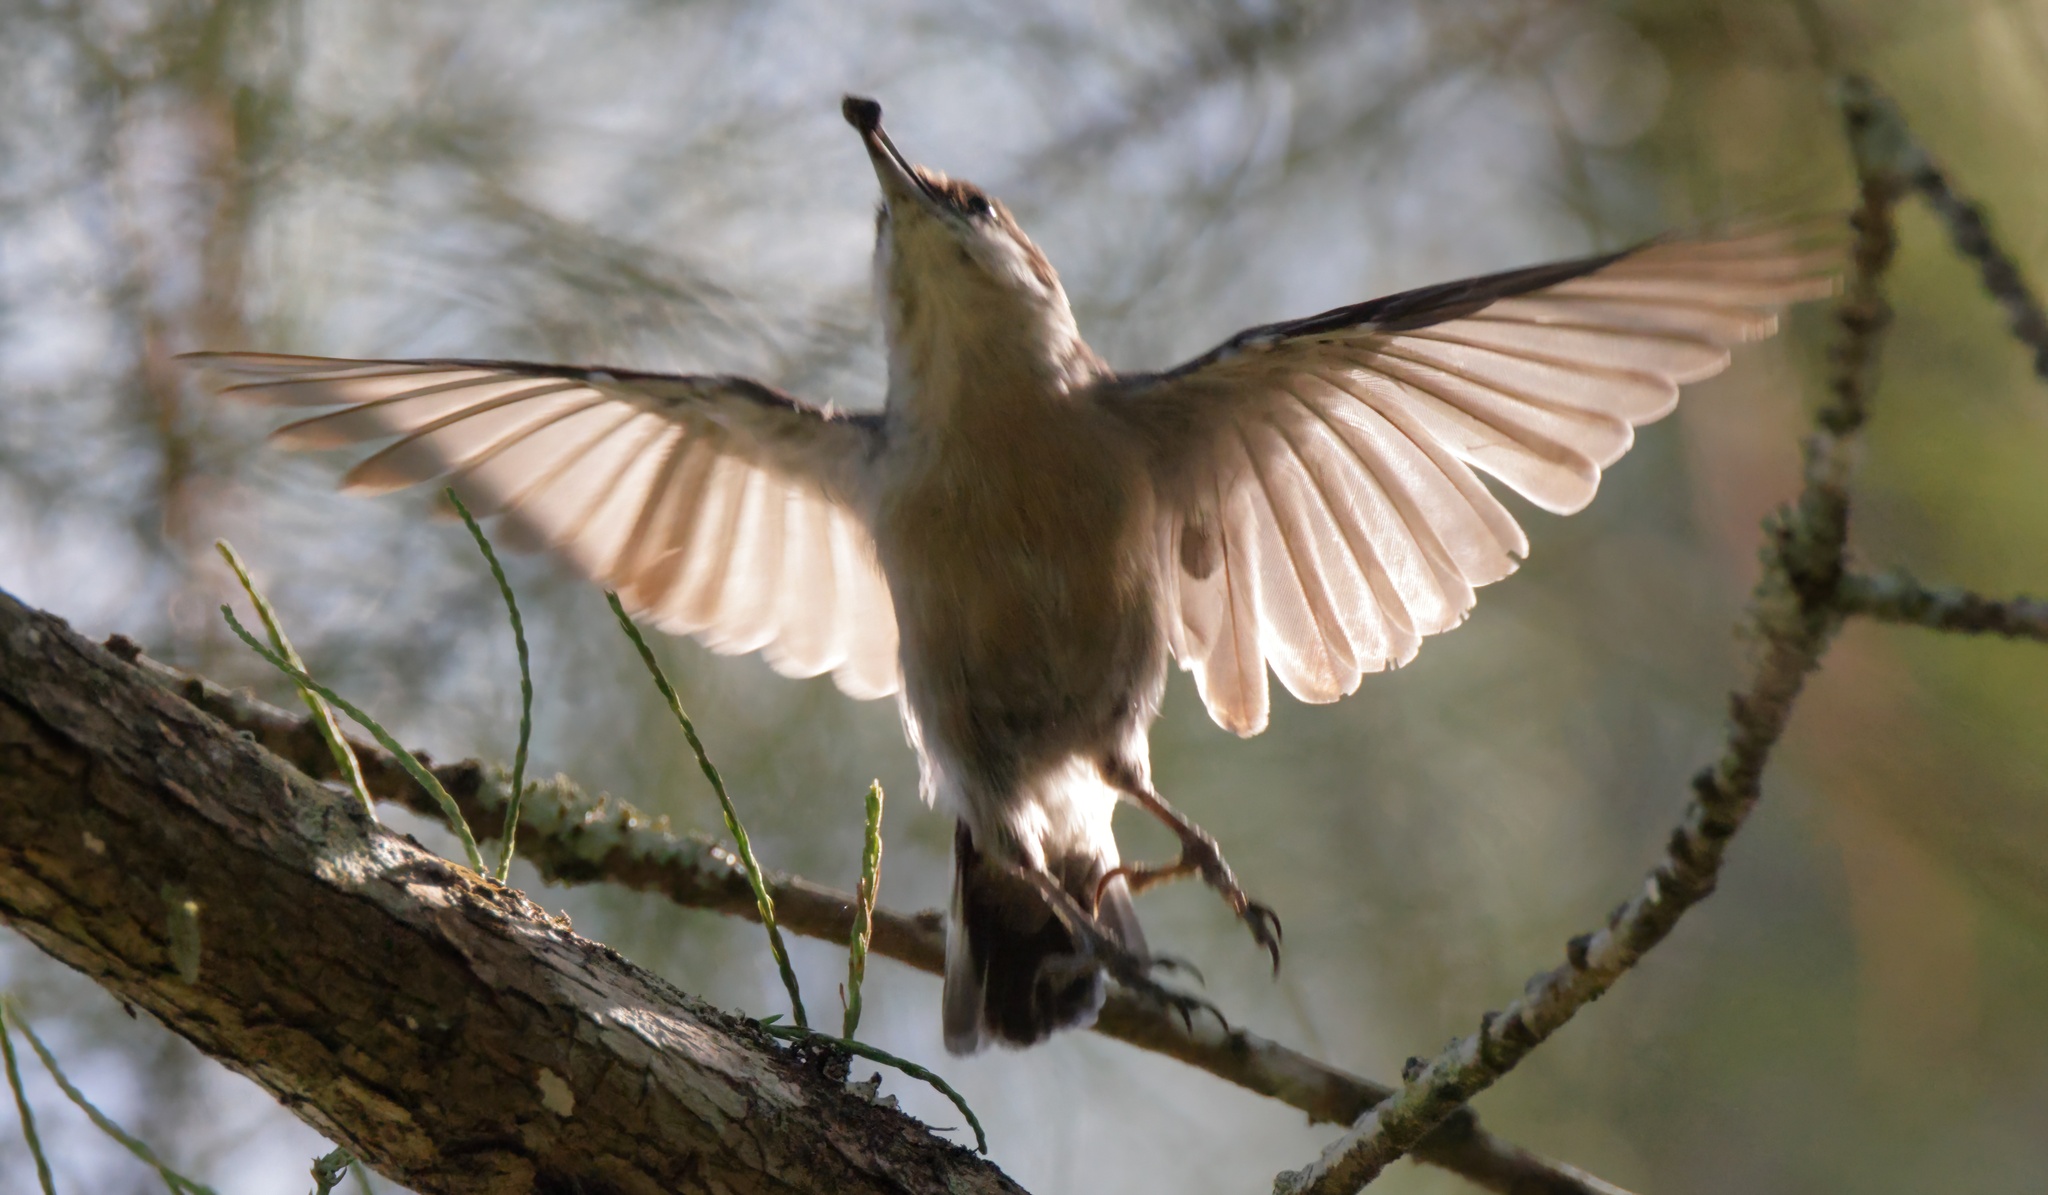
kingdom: Animalia
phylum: Chordata
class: Aves
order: Passeriformes
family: Sittidae
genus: Sitta
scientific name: Sitta pusilla
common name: Brown-headed nuthatch
